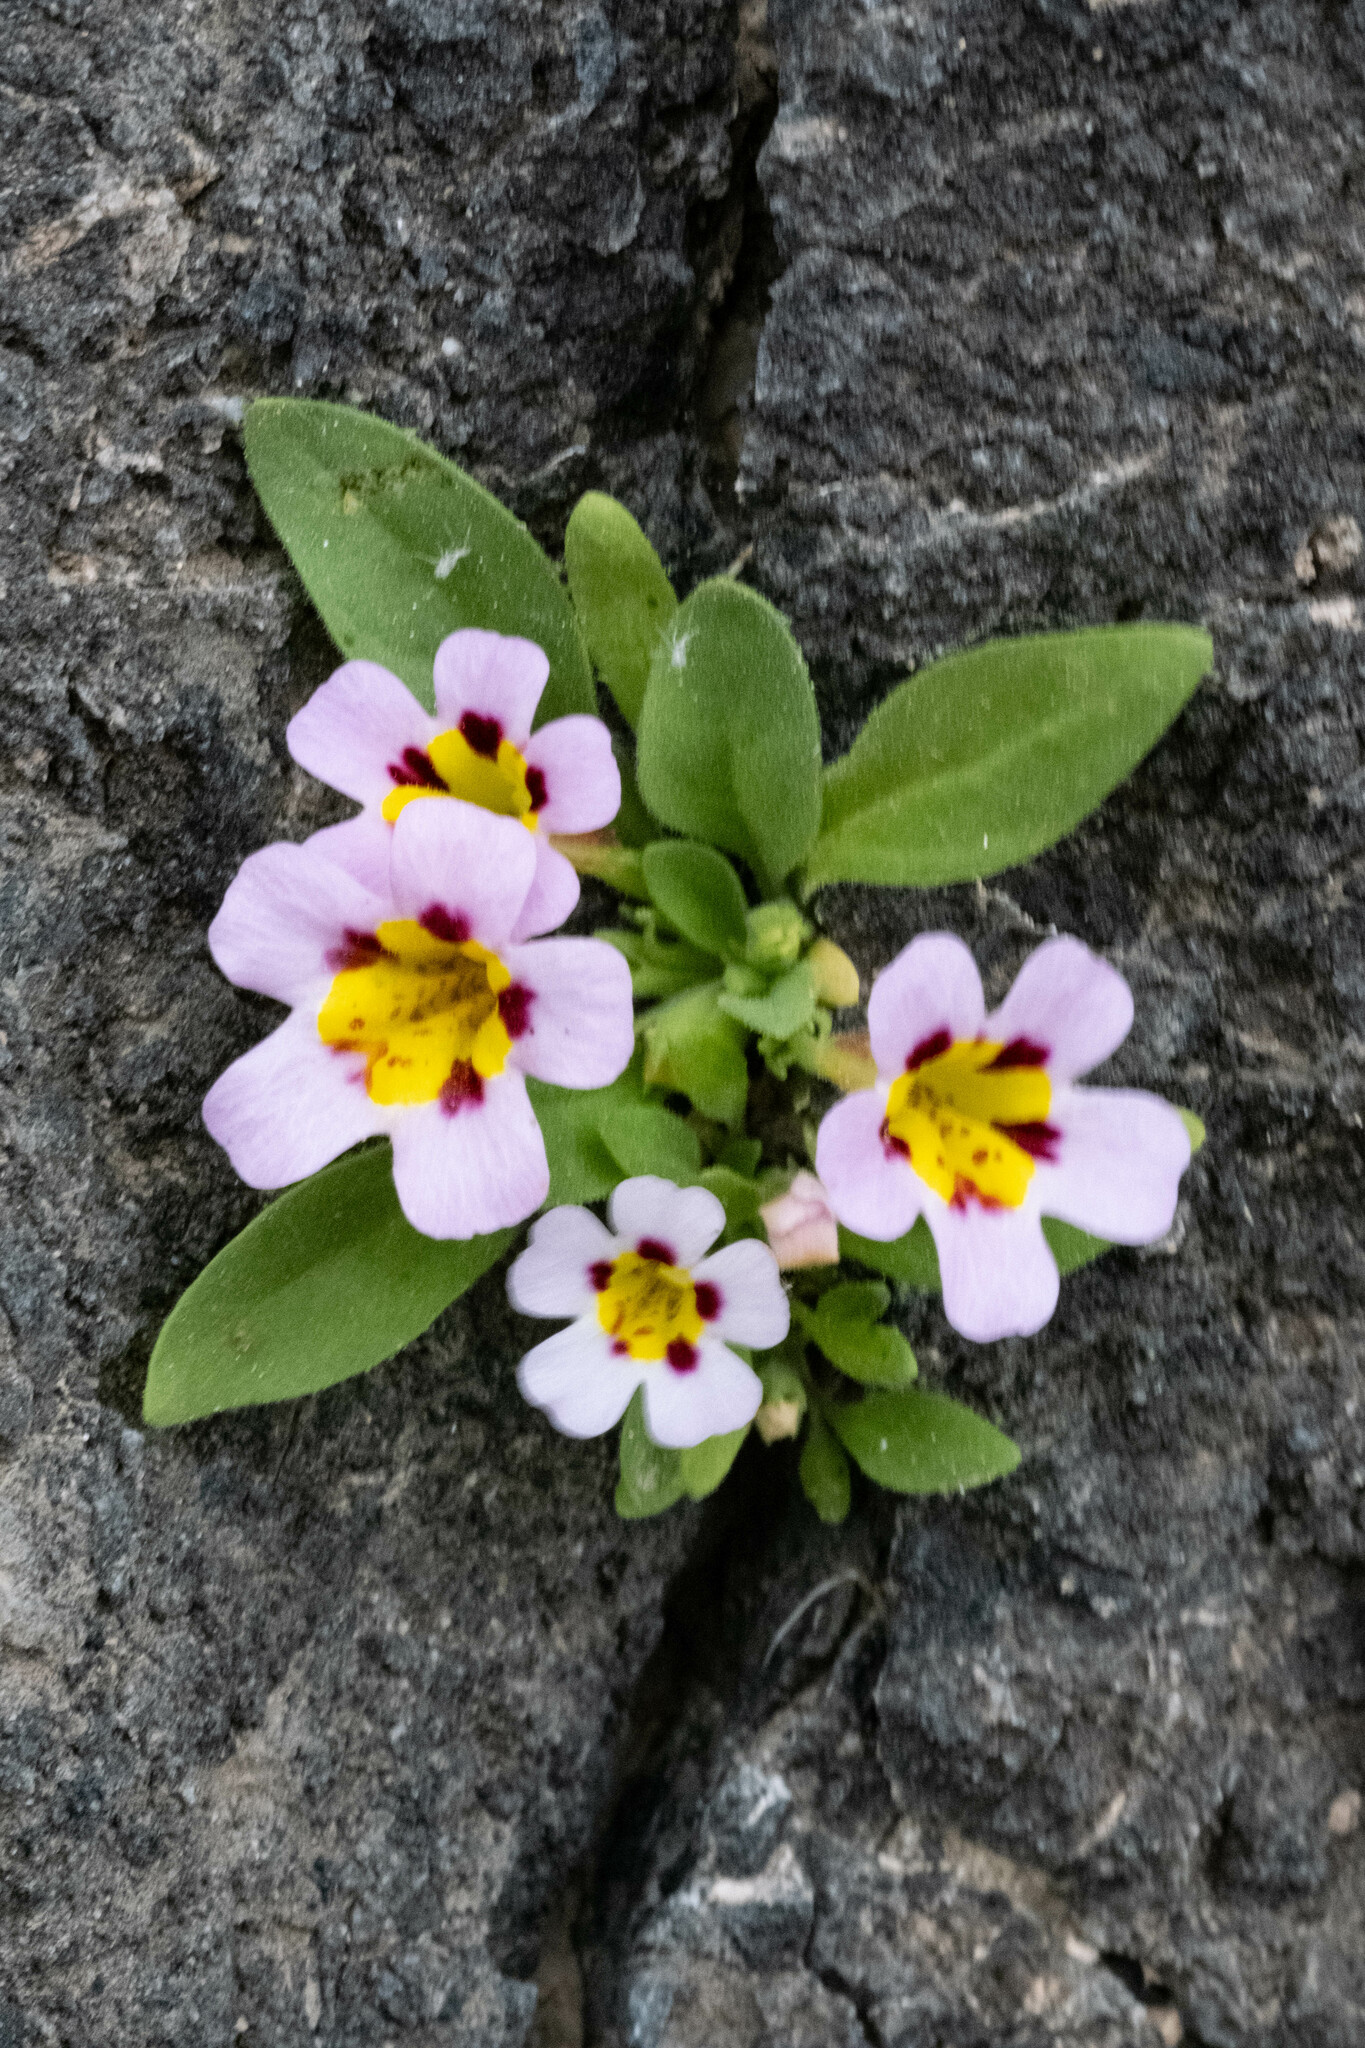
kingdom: Plantae
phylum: Tracheophyta
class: Magnoliopsida
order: Lamiales
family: Phrymaceae
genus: Diplacus
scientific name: Diplacus rupicola
